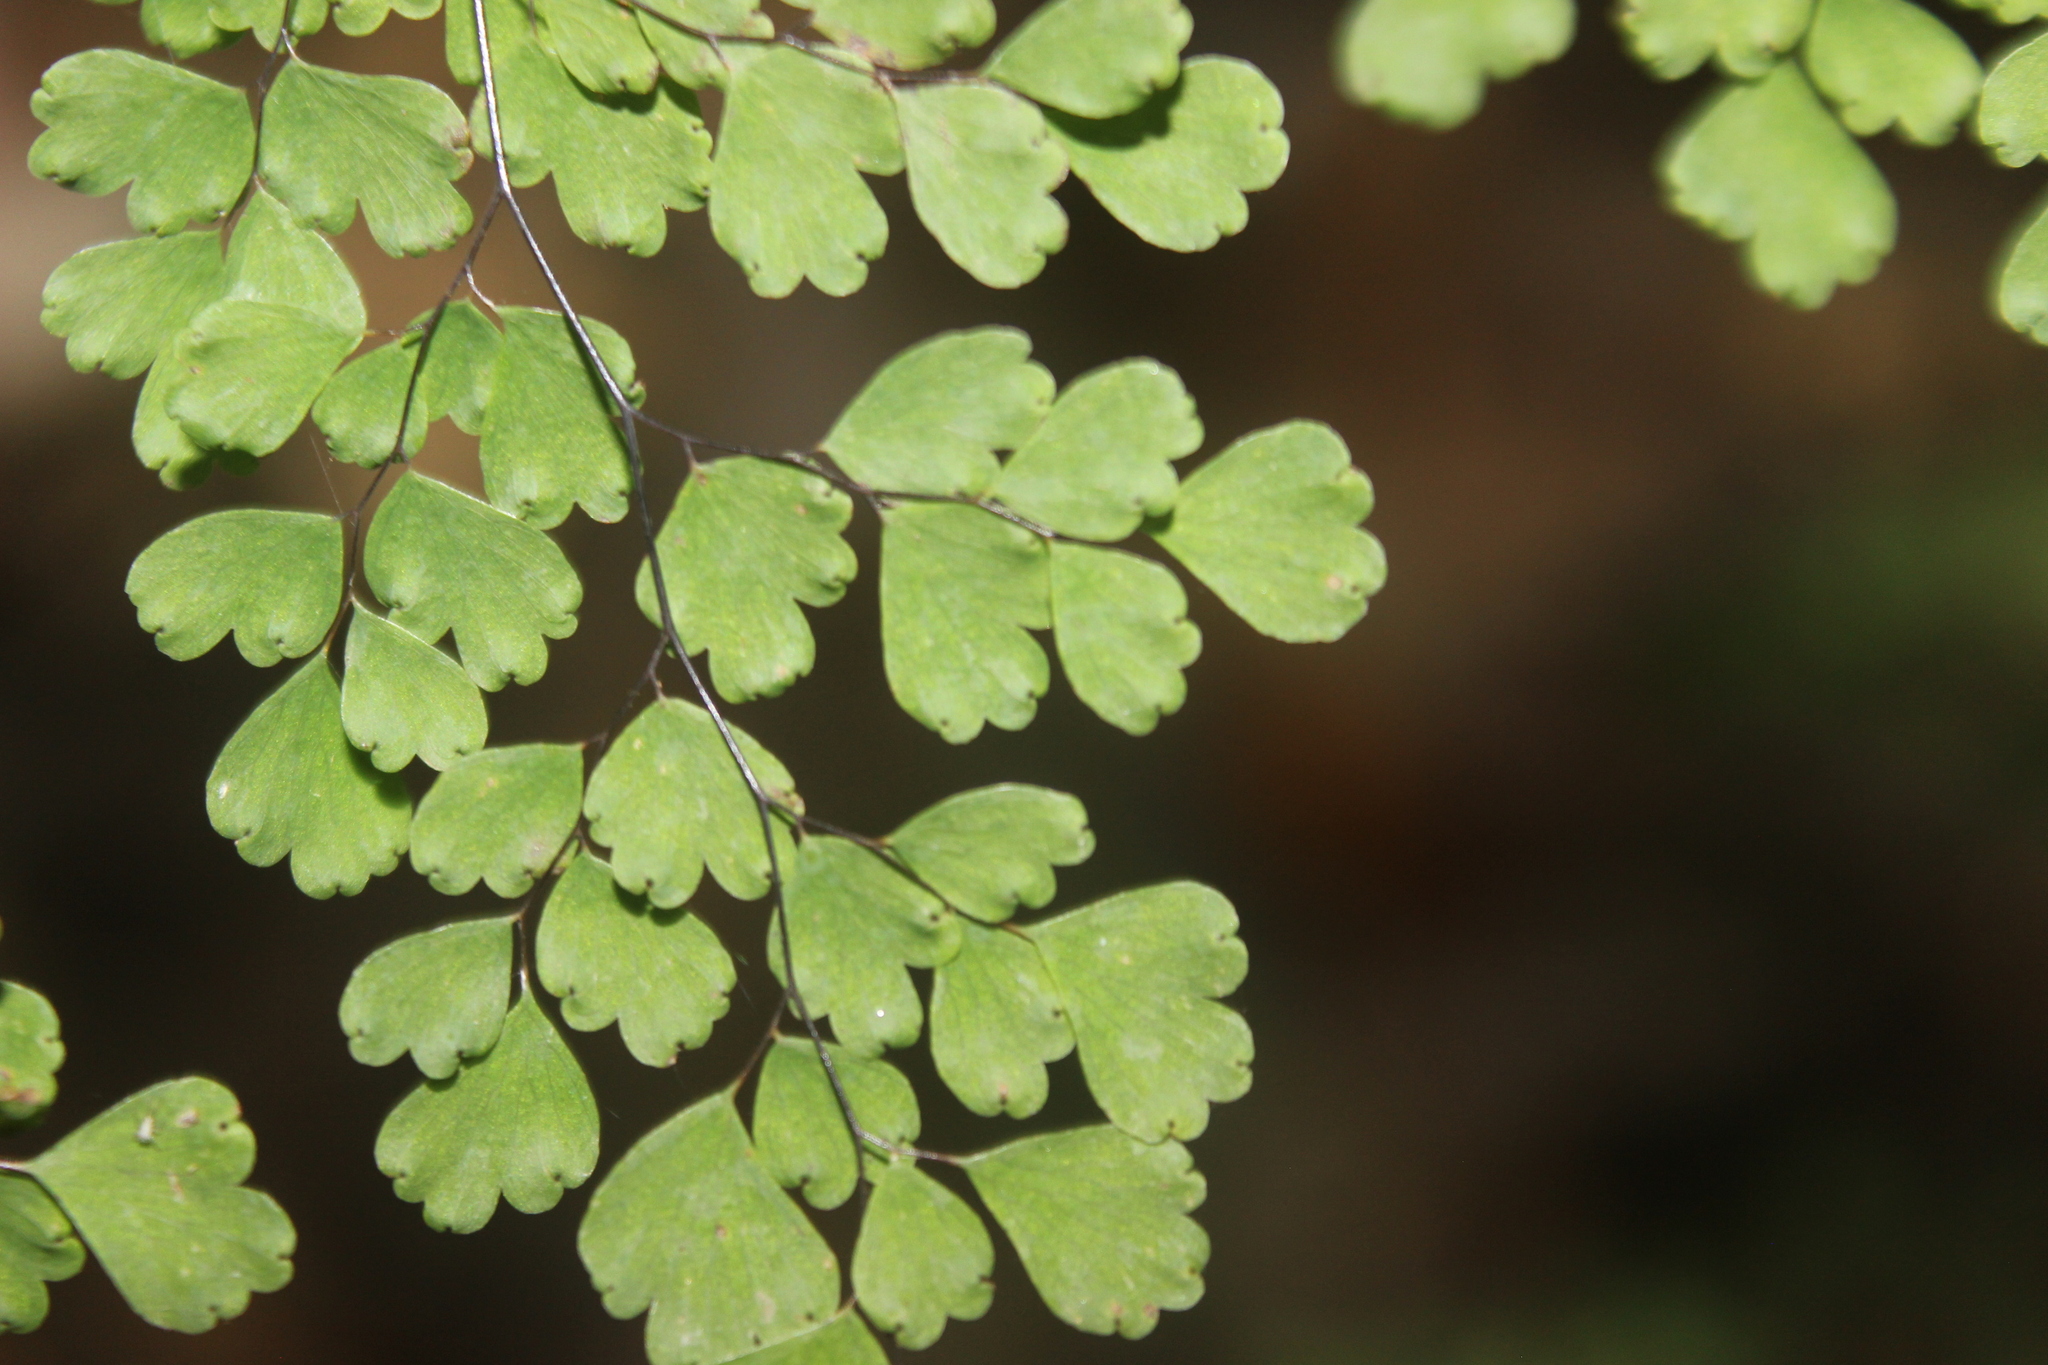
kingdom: Plantae
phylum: Tracheophyta
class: Polypodiopsida
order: Polypodiales
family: Pteridaceae
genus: Adiantum
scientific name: Adiantum raddianum
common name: Delta maidenhair fern
